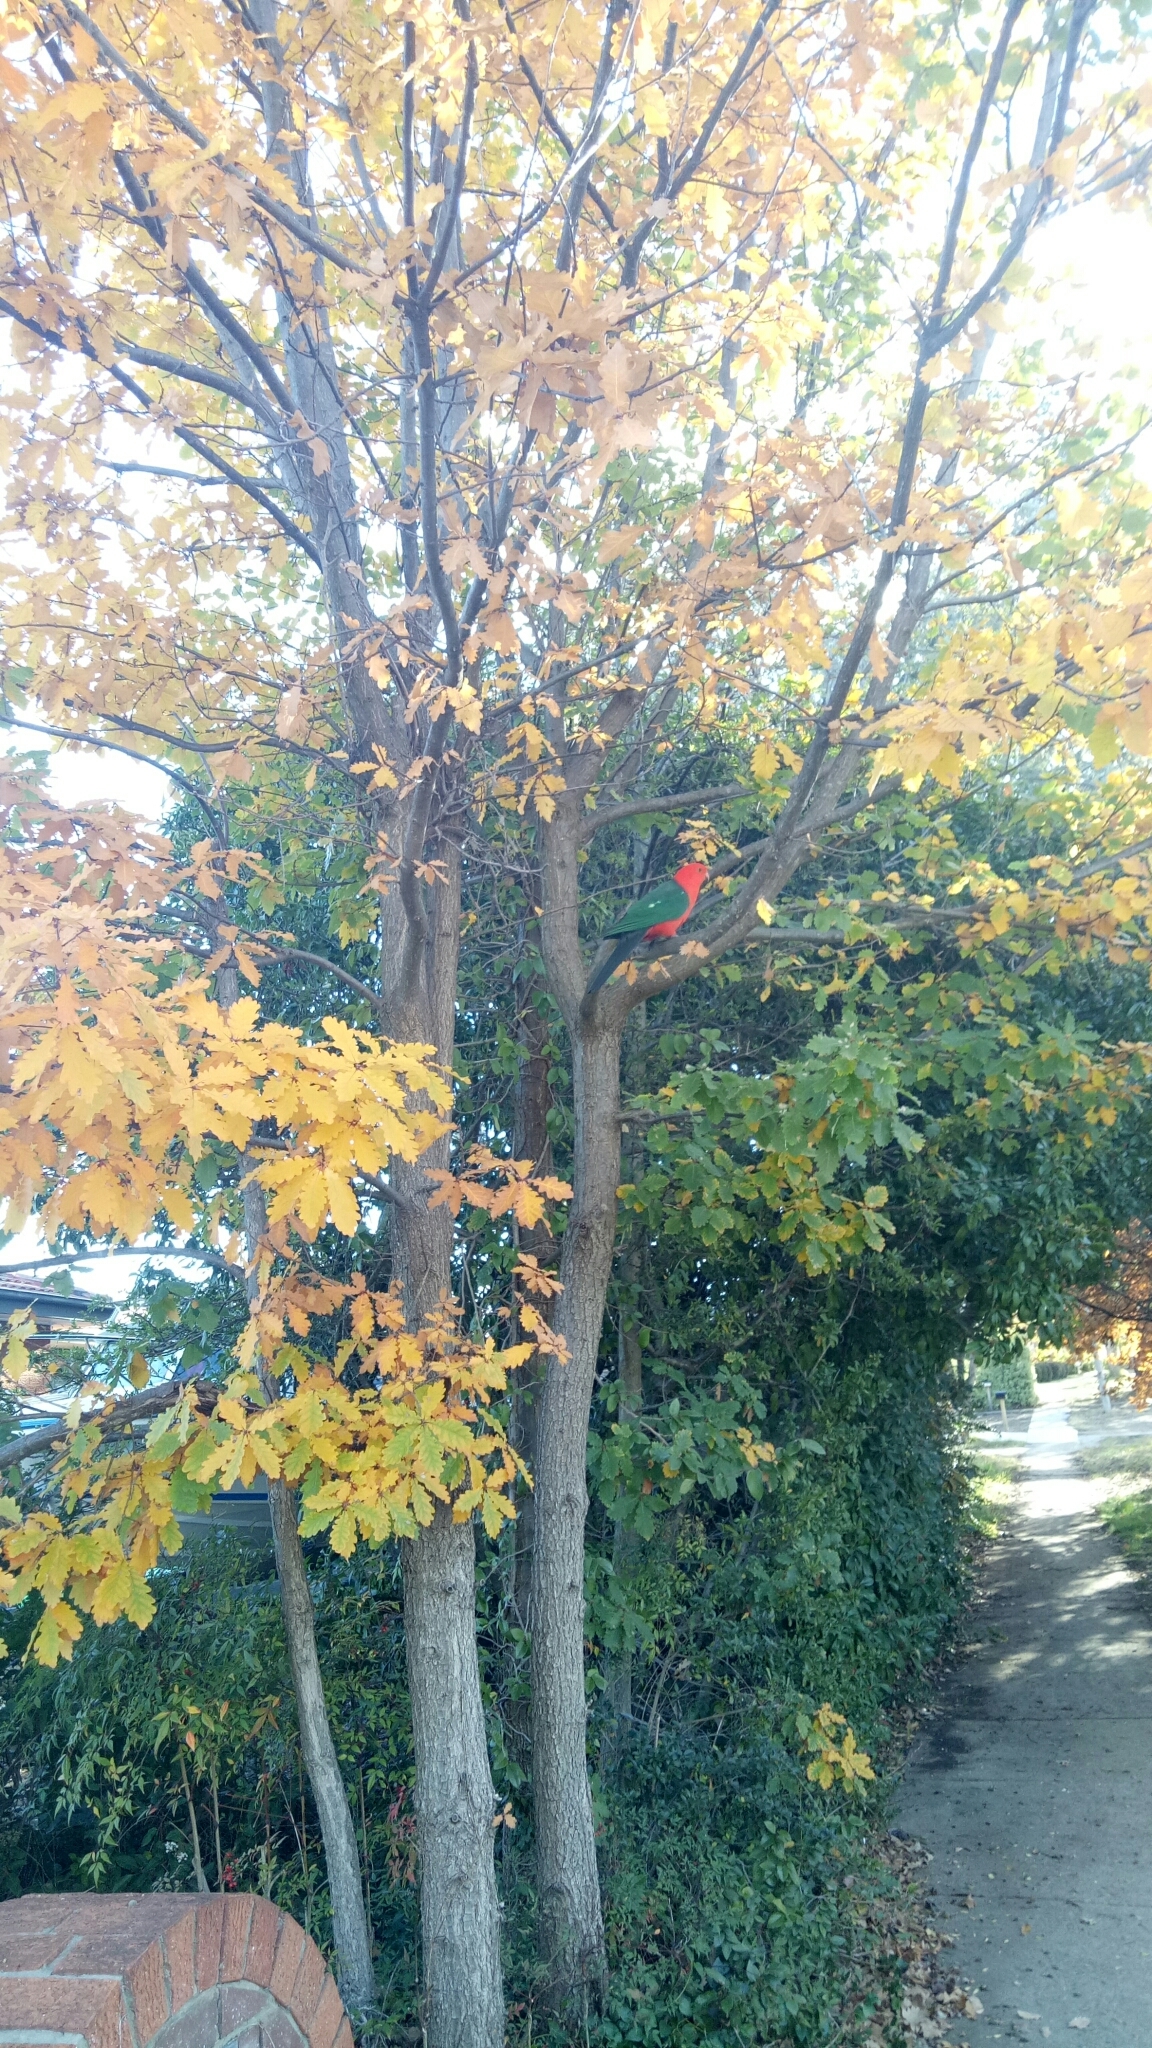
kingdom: Animalia
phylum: Chordata
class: Aves
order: Psittaciformes
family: Psittacidae
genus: Alisterus
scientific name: Alisterus scapularis
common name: Australian king parrot
